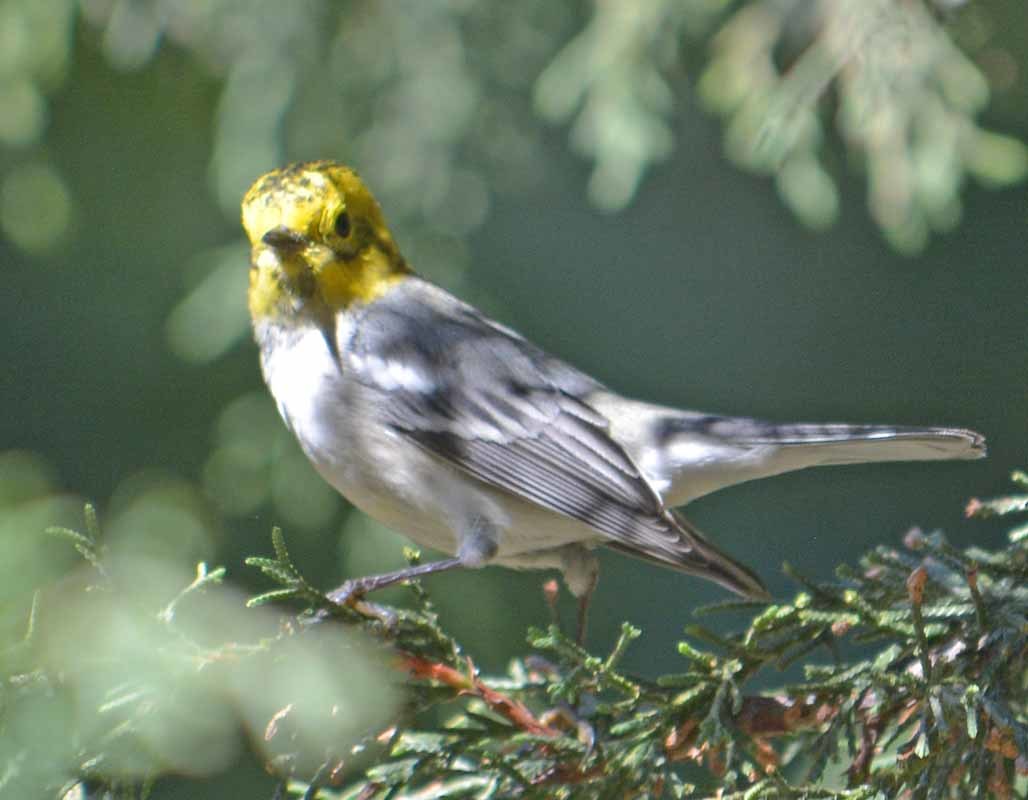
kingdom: Animalia
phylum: Chordata
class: Aves
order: Passeriformes
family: Parulidae
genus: Setophaga
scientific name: Setophaga occidentalis
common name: Hermit warbler
